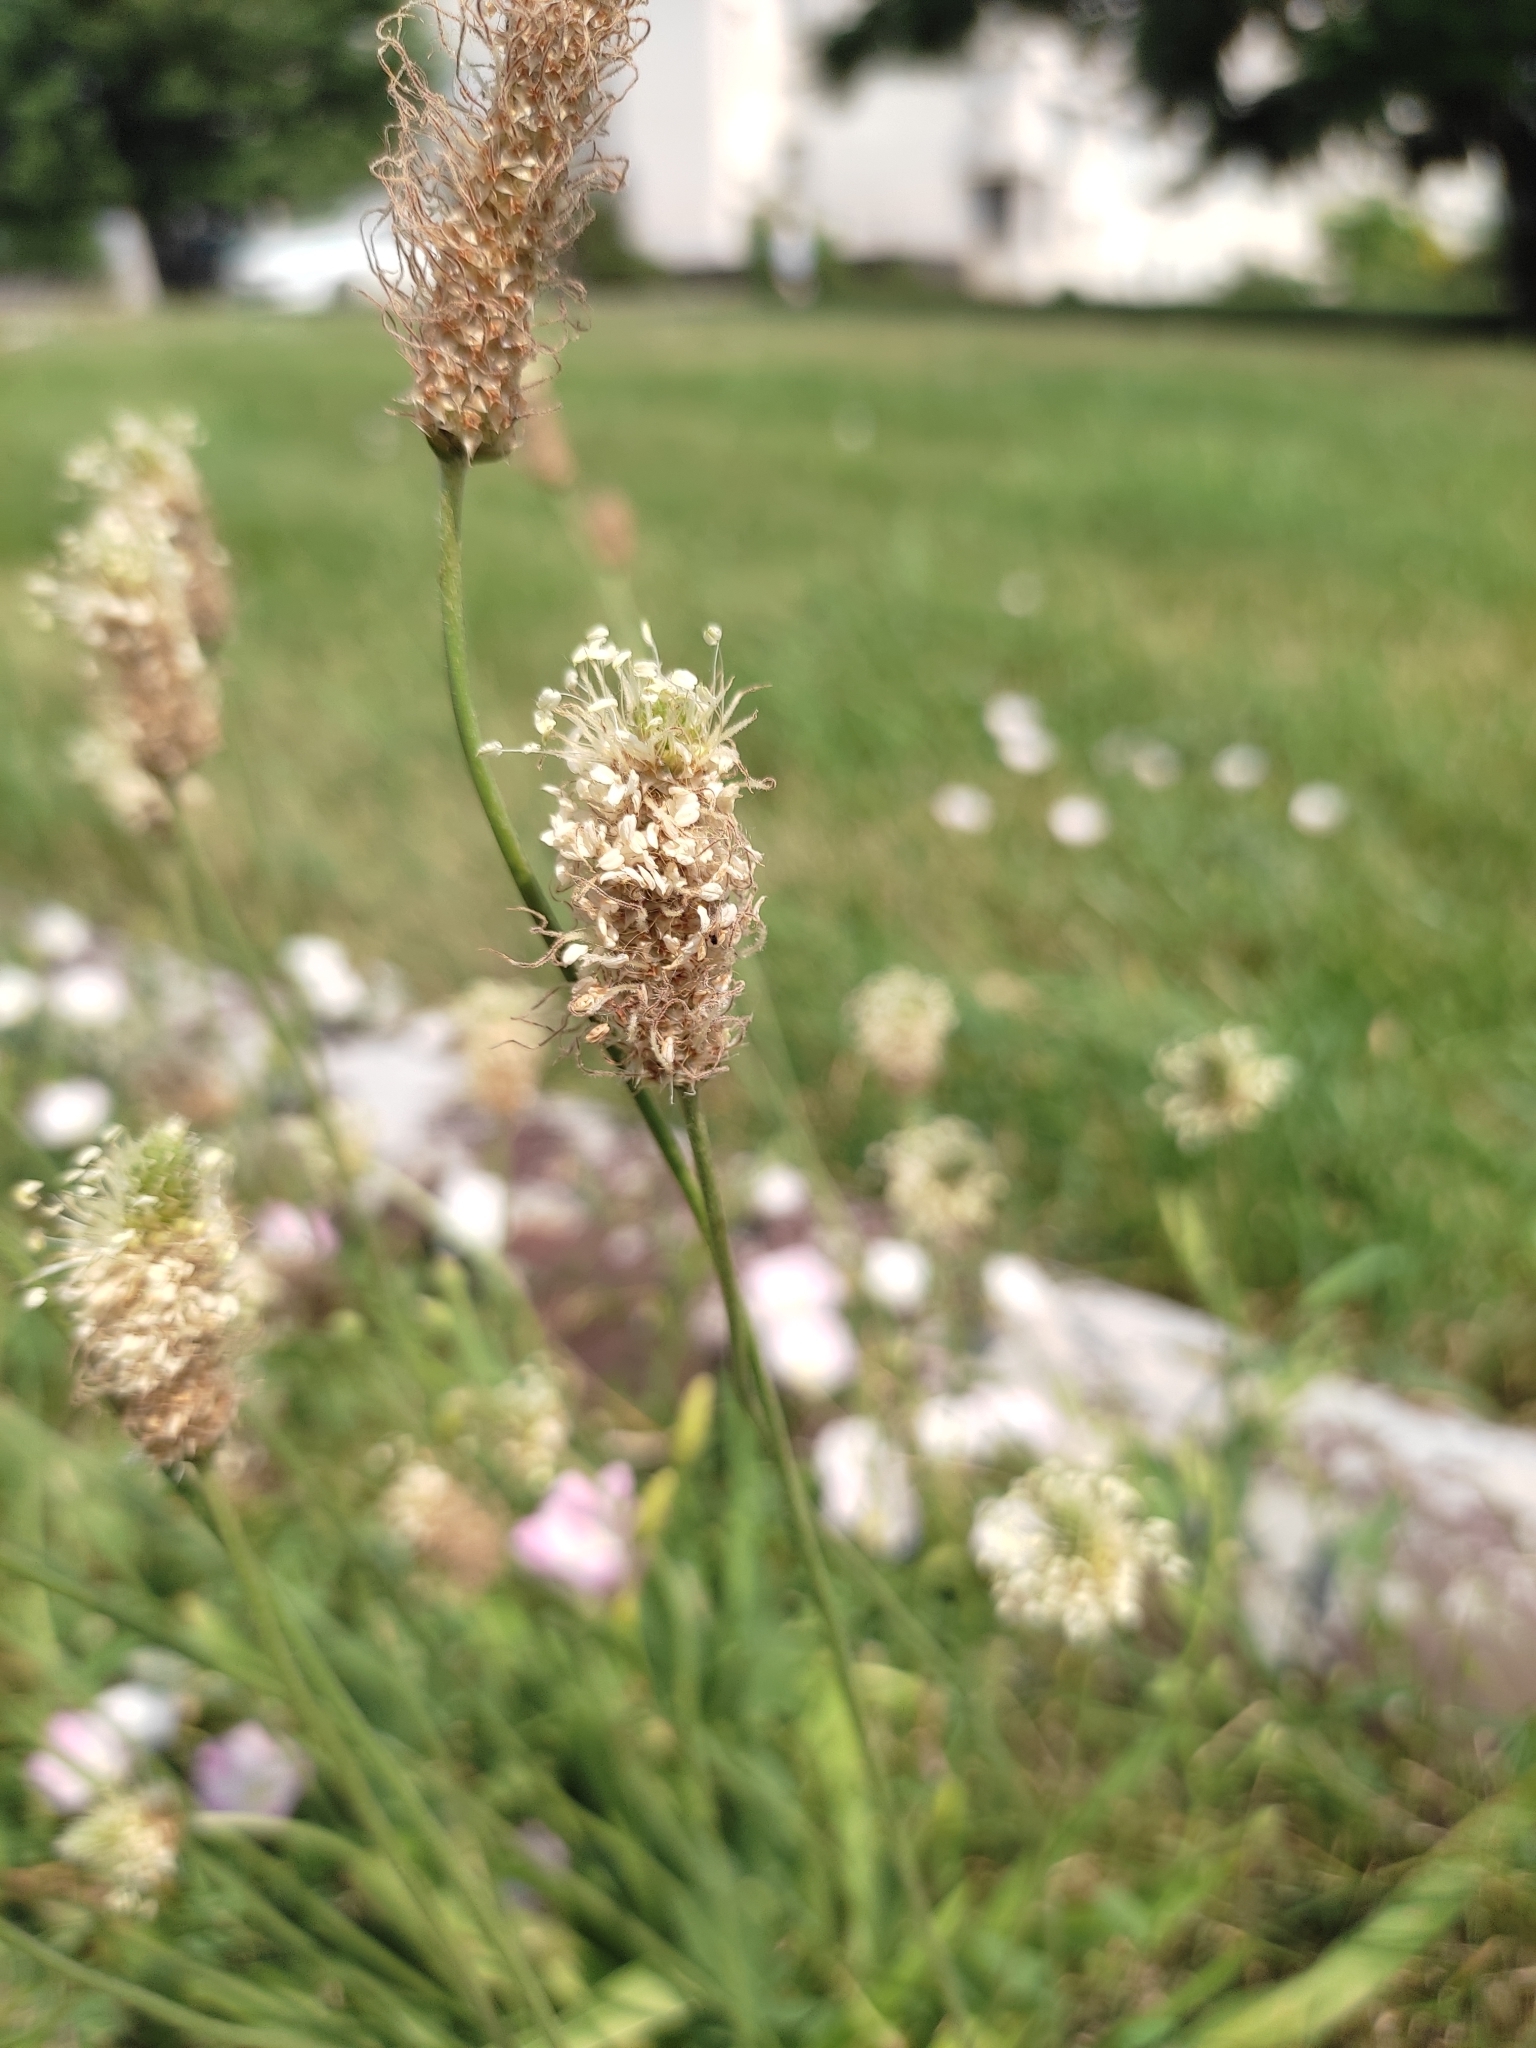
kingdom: Plantae
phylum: Tracheophyta
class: Magnoliopsida
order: Lamiales
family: Plantaginaceae
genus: Plantago
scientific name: Plantago lanceolata
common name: Ribwort plantain
